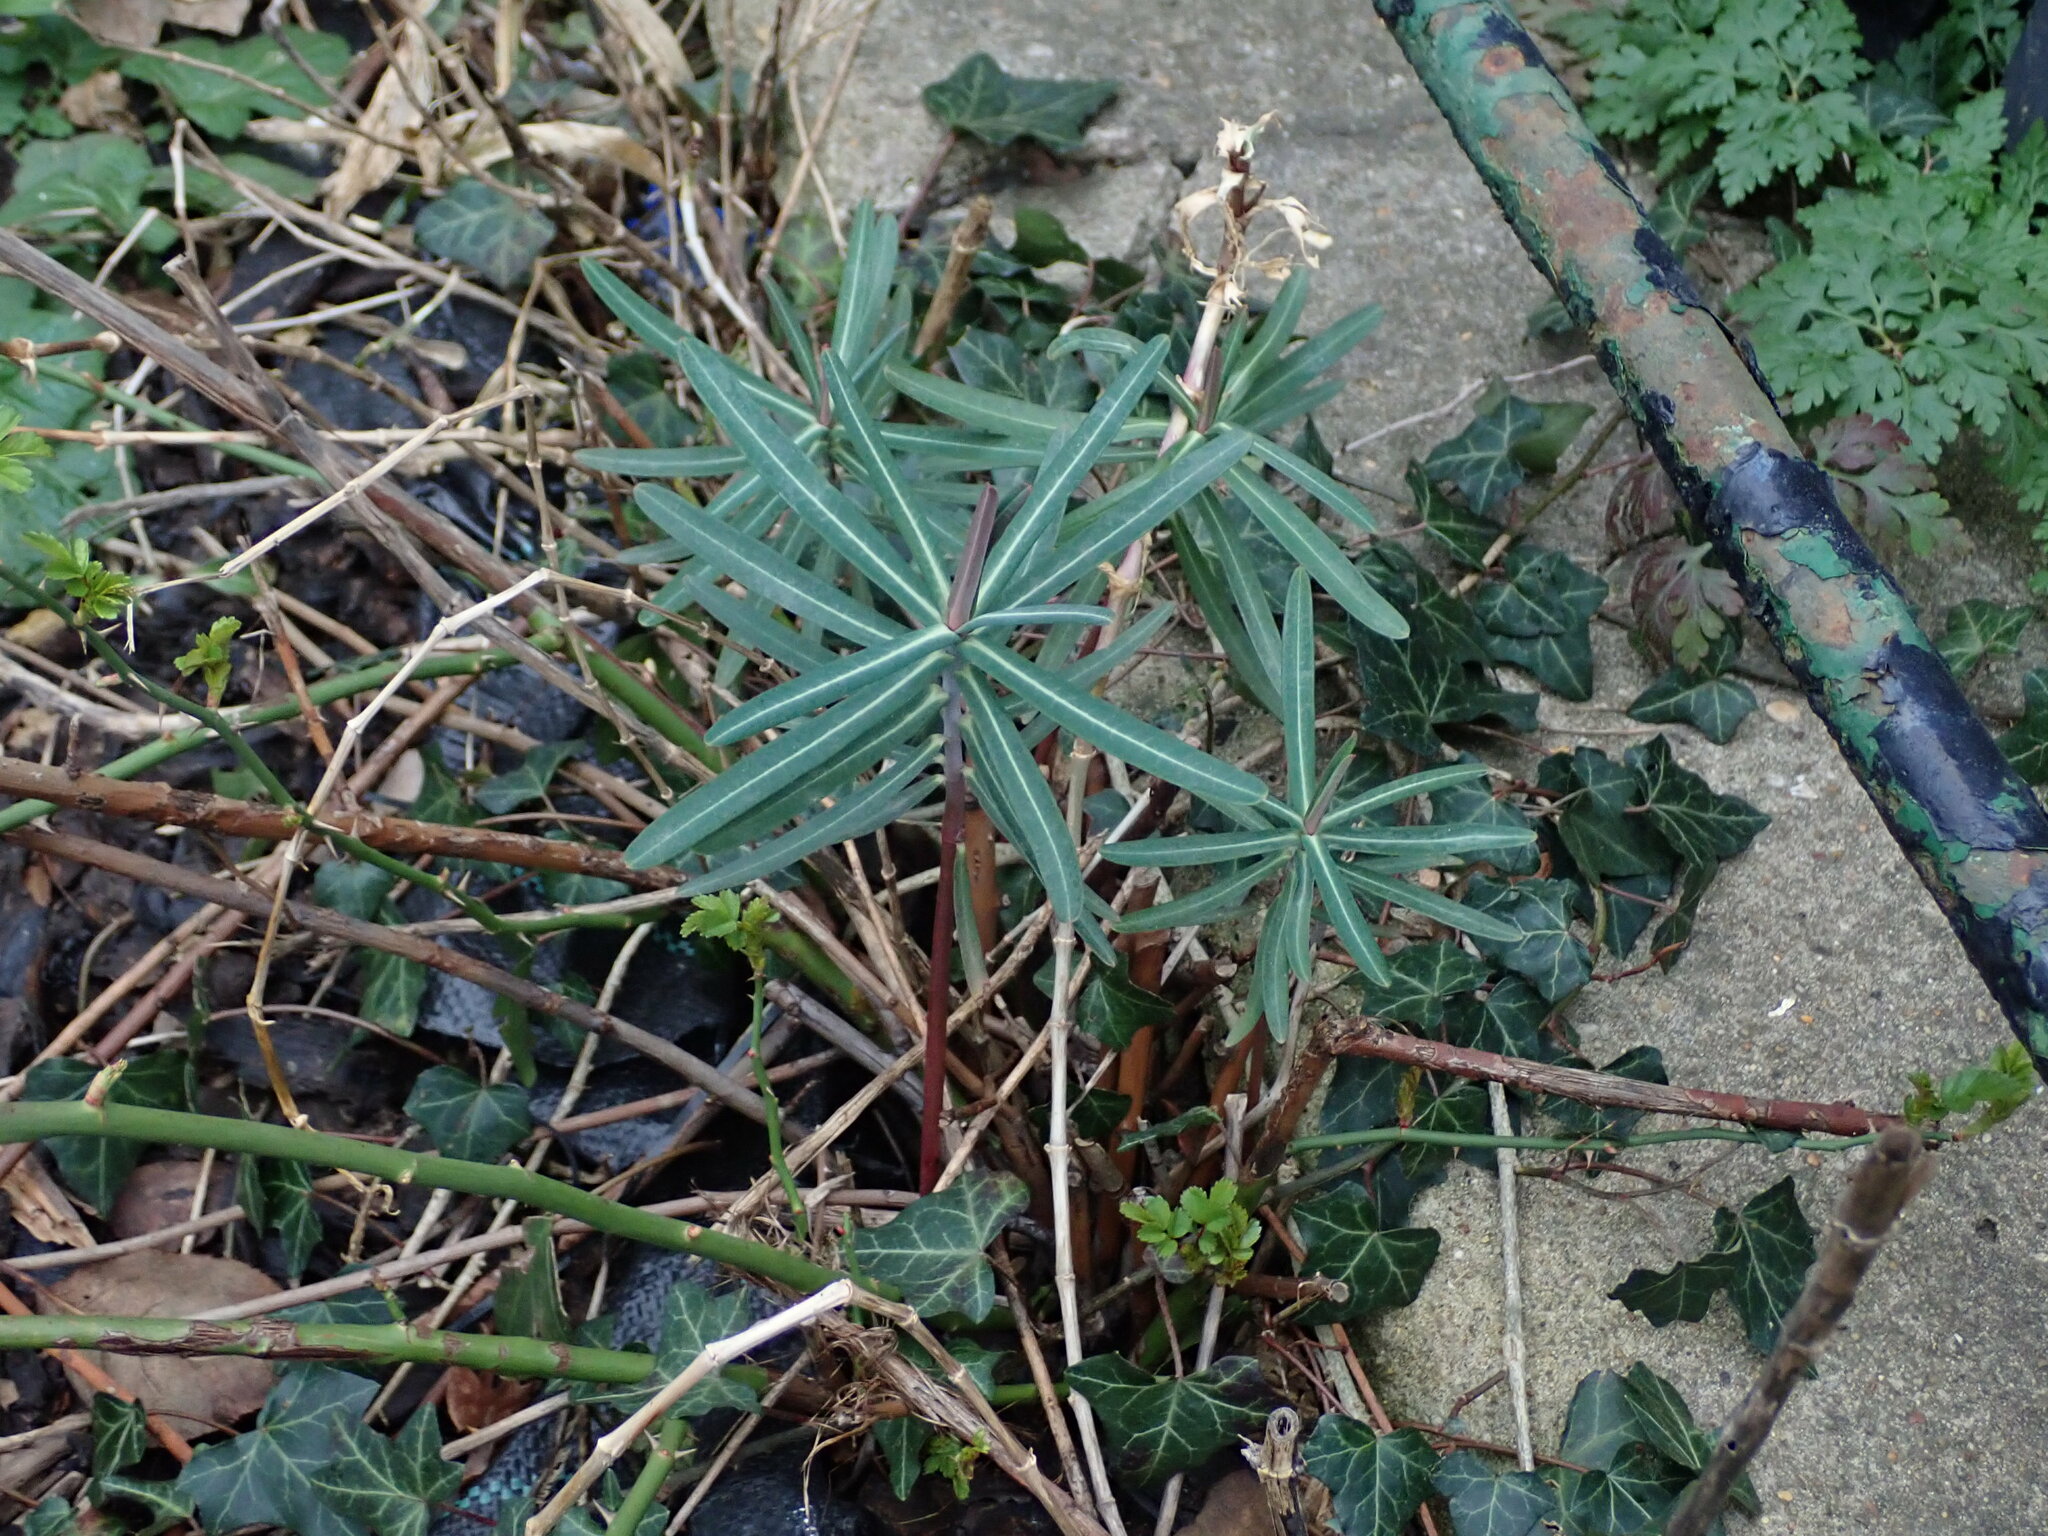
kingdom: Plantae
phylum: Tracheophyta
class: Magnoliopsida
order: Malpighiales
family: Euphorbiaceae
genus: Euphorbia
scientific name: Euphorbia lathyris
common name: Caper spurge
